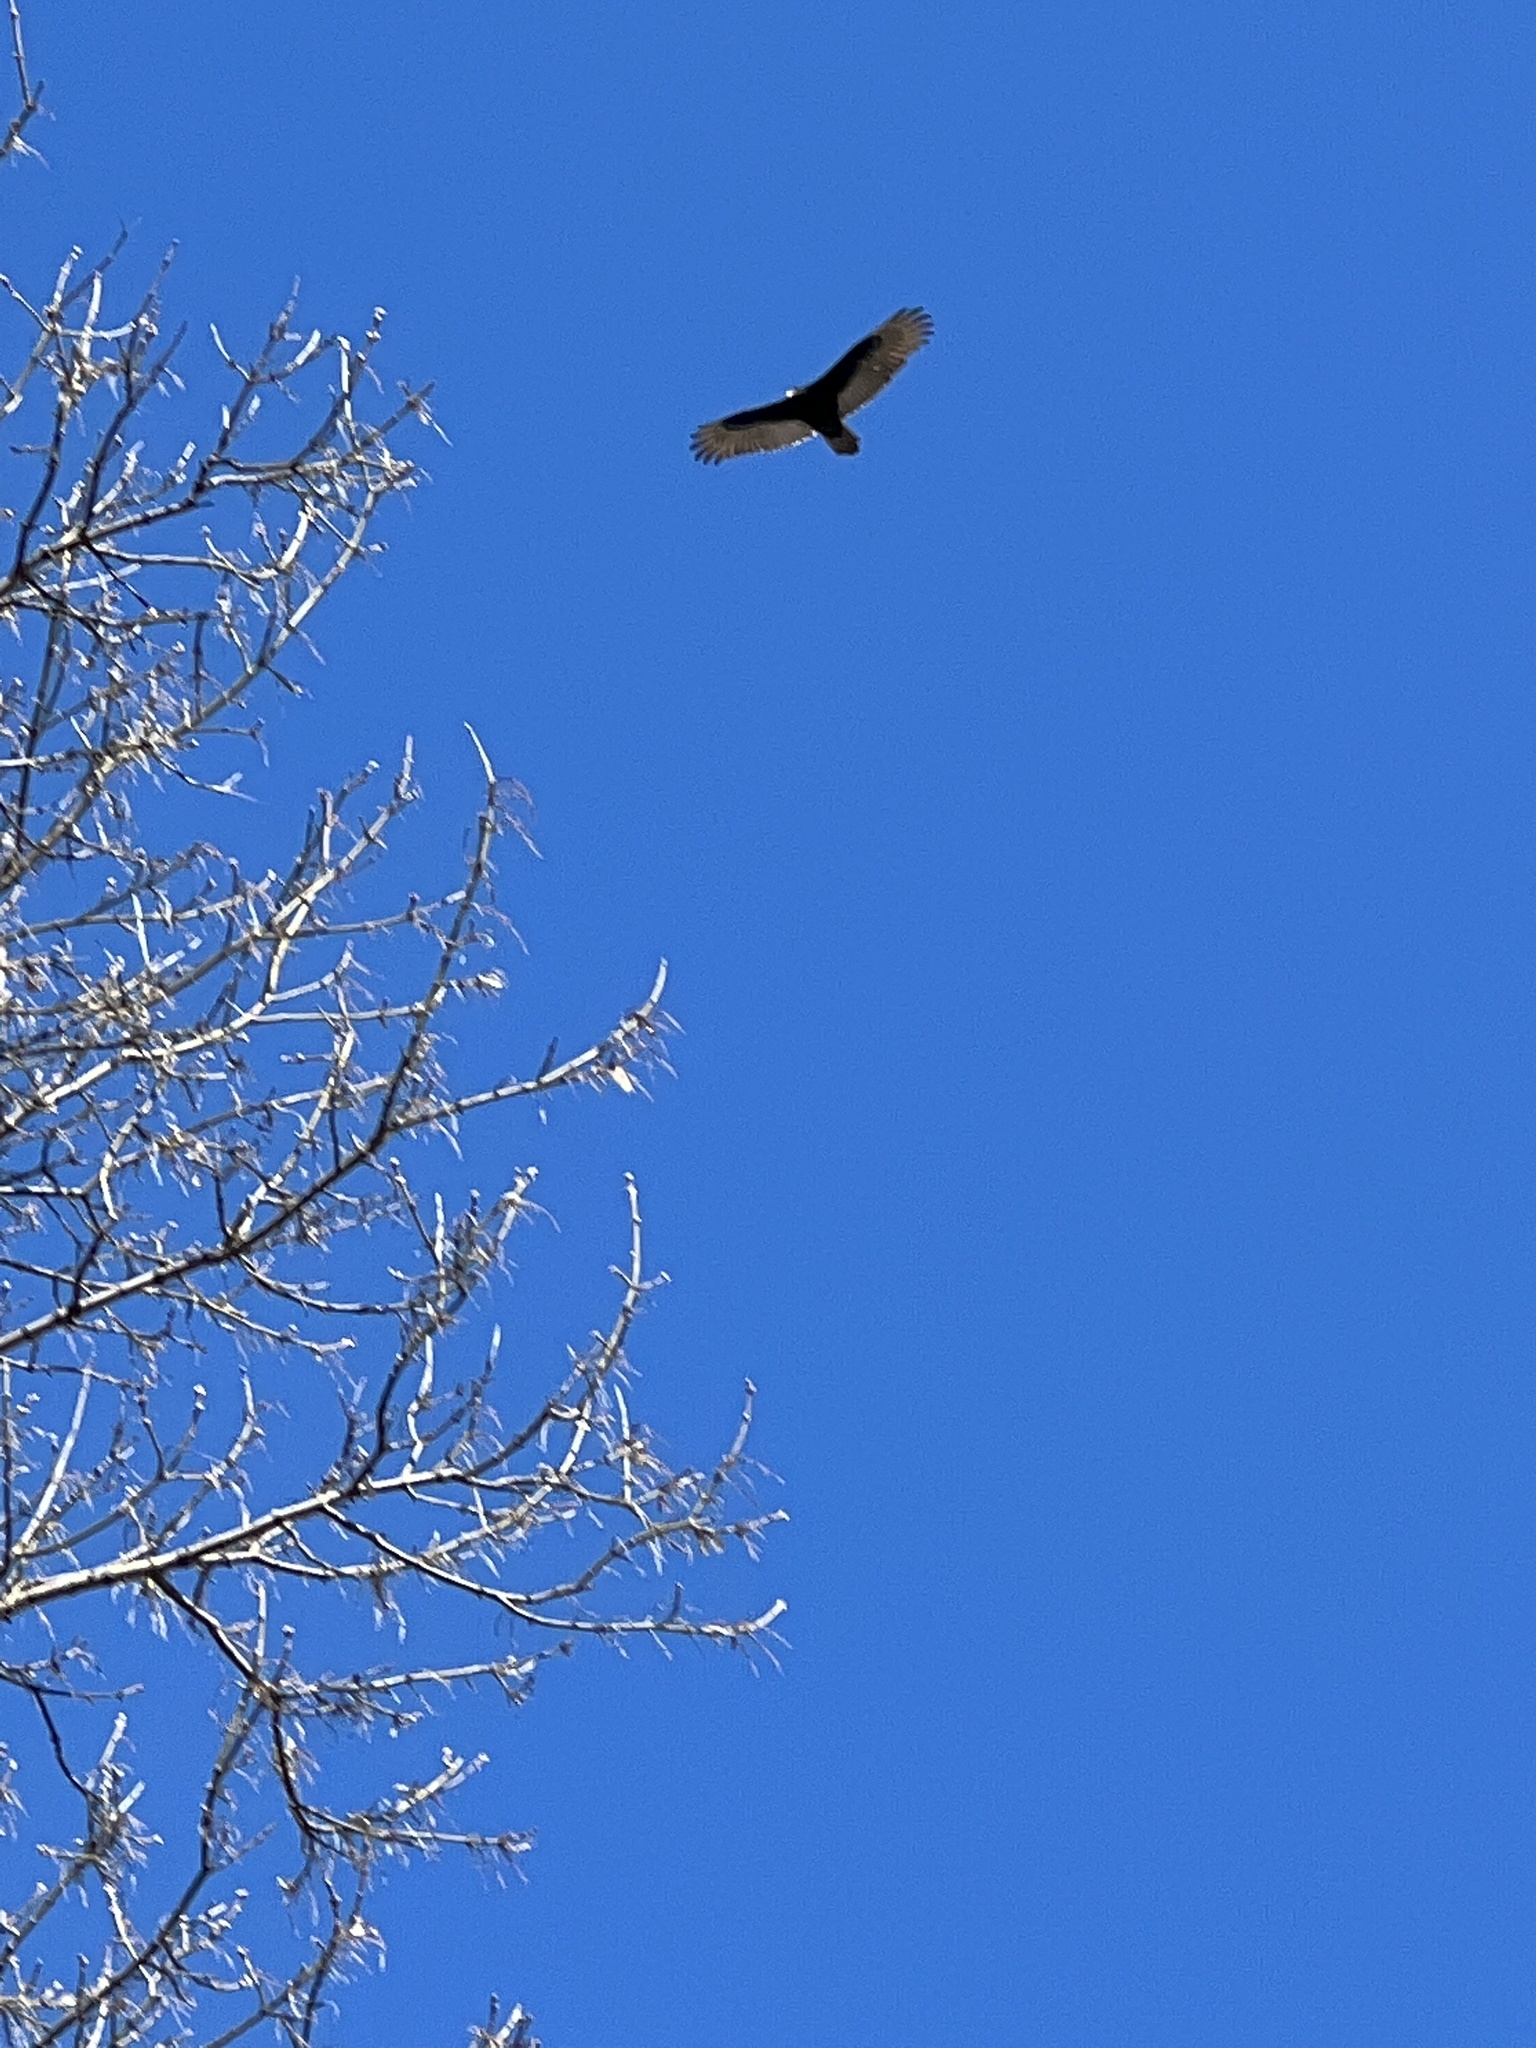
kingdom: Animalia
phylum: Chordata
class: Aves
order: Accipitriformes
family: Cathartidae
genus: Cathartes
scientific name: Cathartes aura
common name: Turkey vulture
